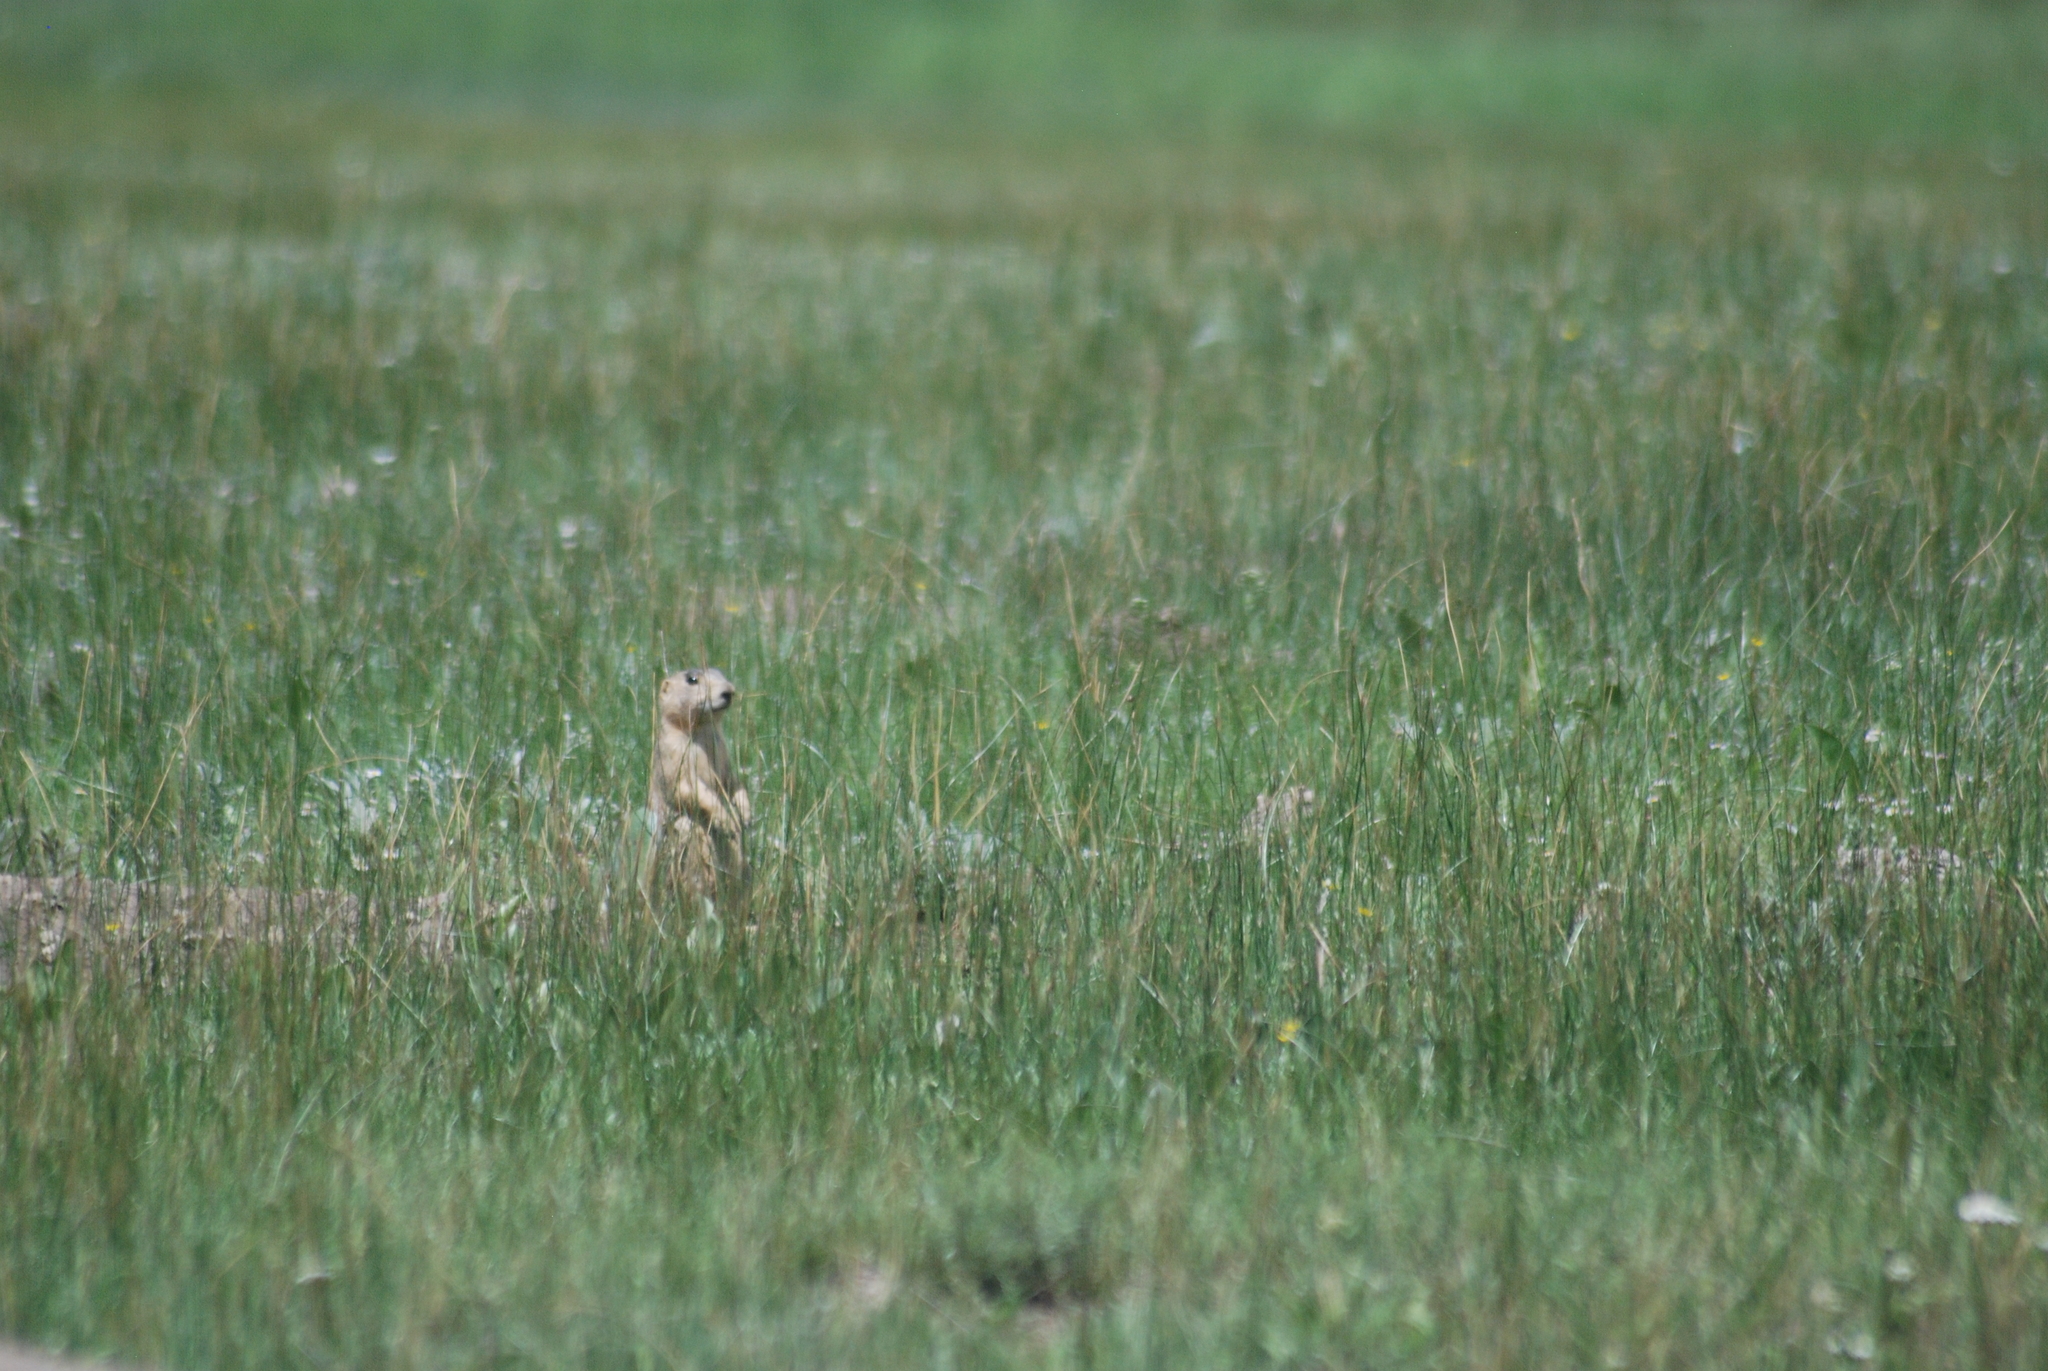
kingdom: Animalia
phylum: Chordata
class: Mammalia
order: Rodentia
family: Sciuridae
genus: Cynomys
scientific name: Cynomys gunnisoni
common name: Gunnison's prairie dog
